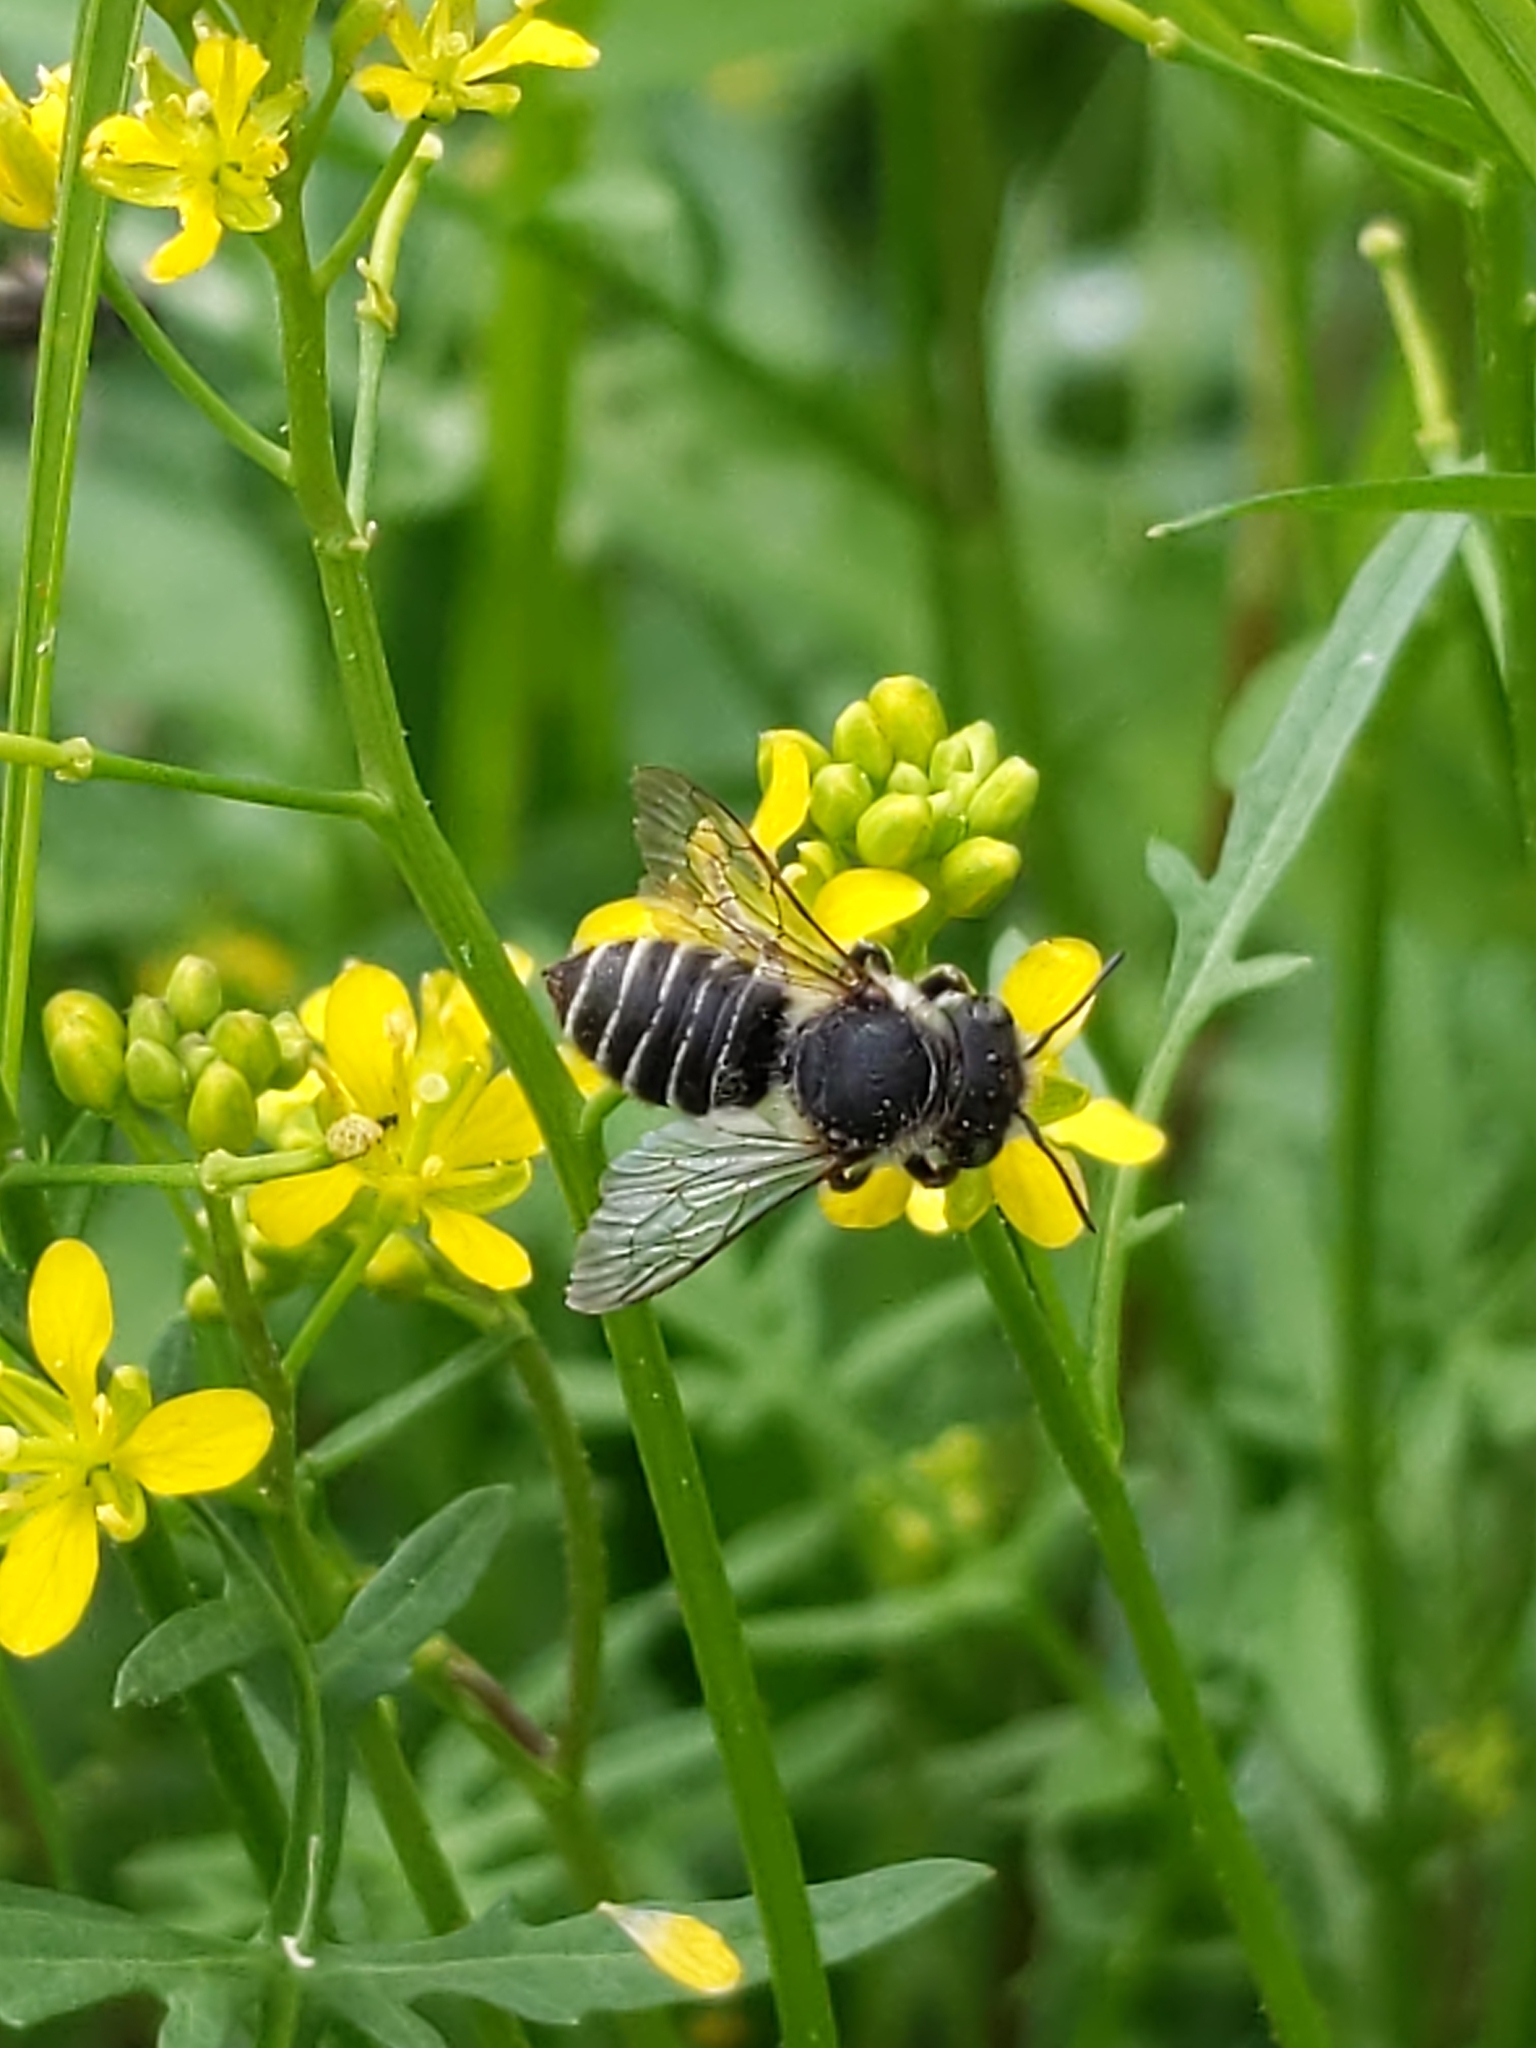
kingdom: Animalia
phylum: Arthropoda
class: Insecta
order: Hymenoptera
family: Megachilidae
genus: Megachile
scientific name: Megachile
